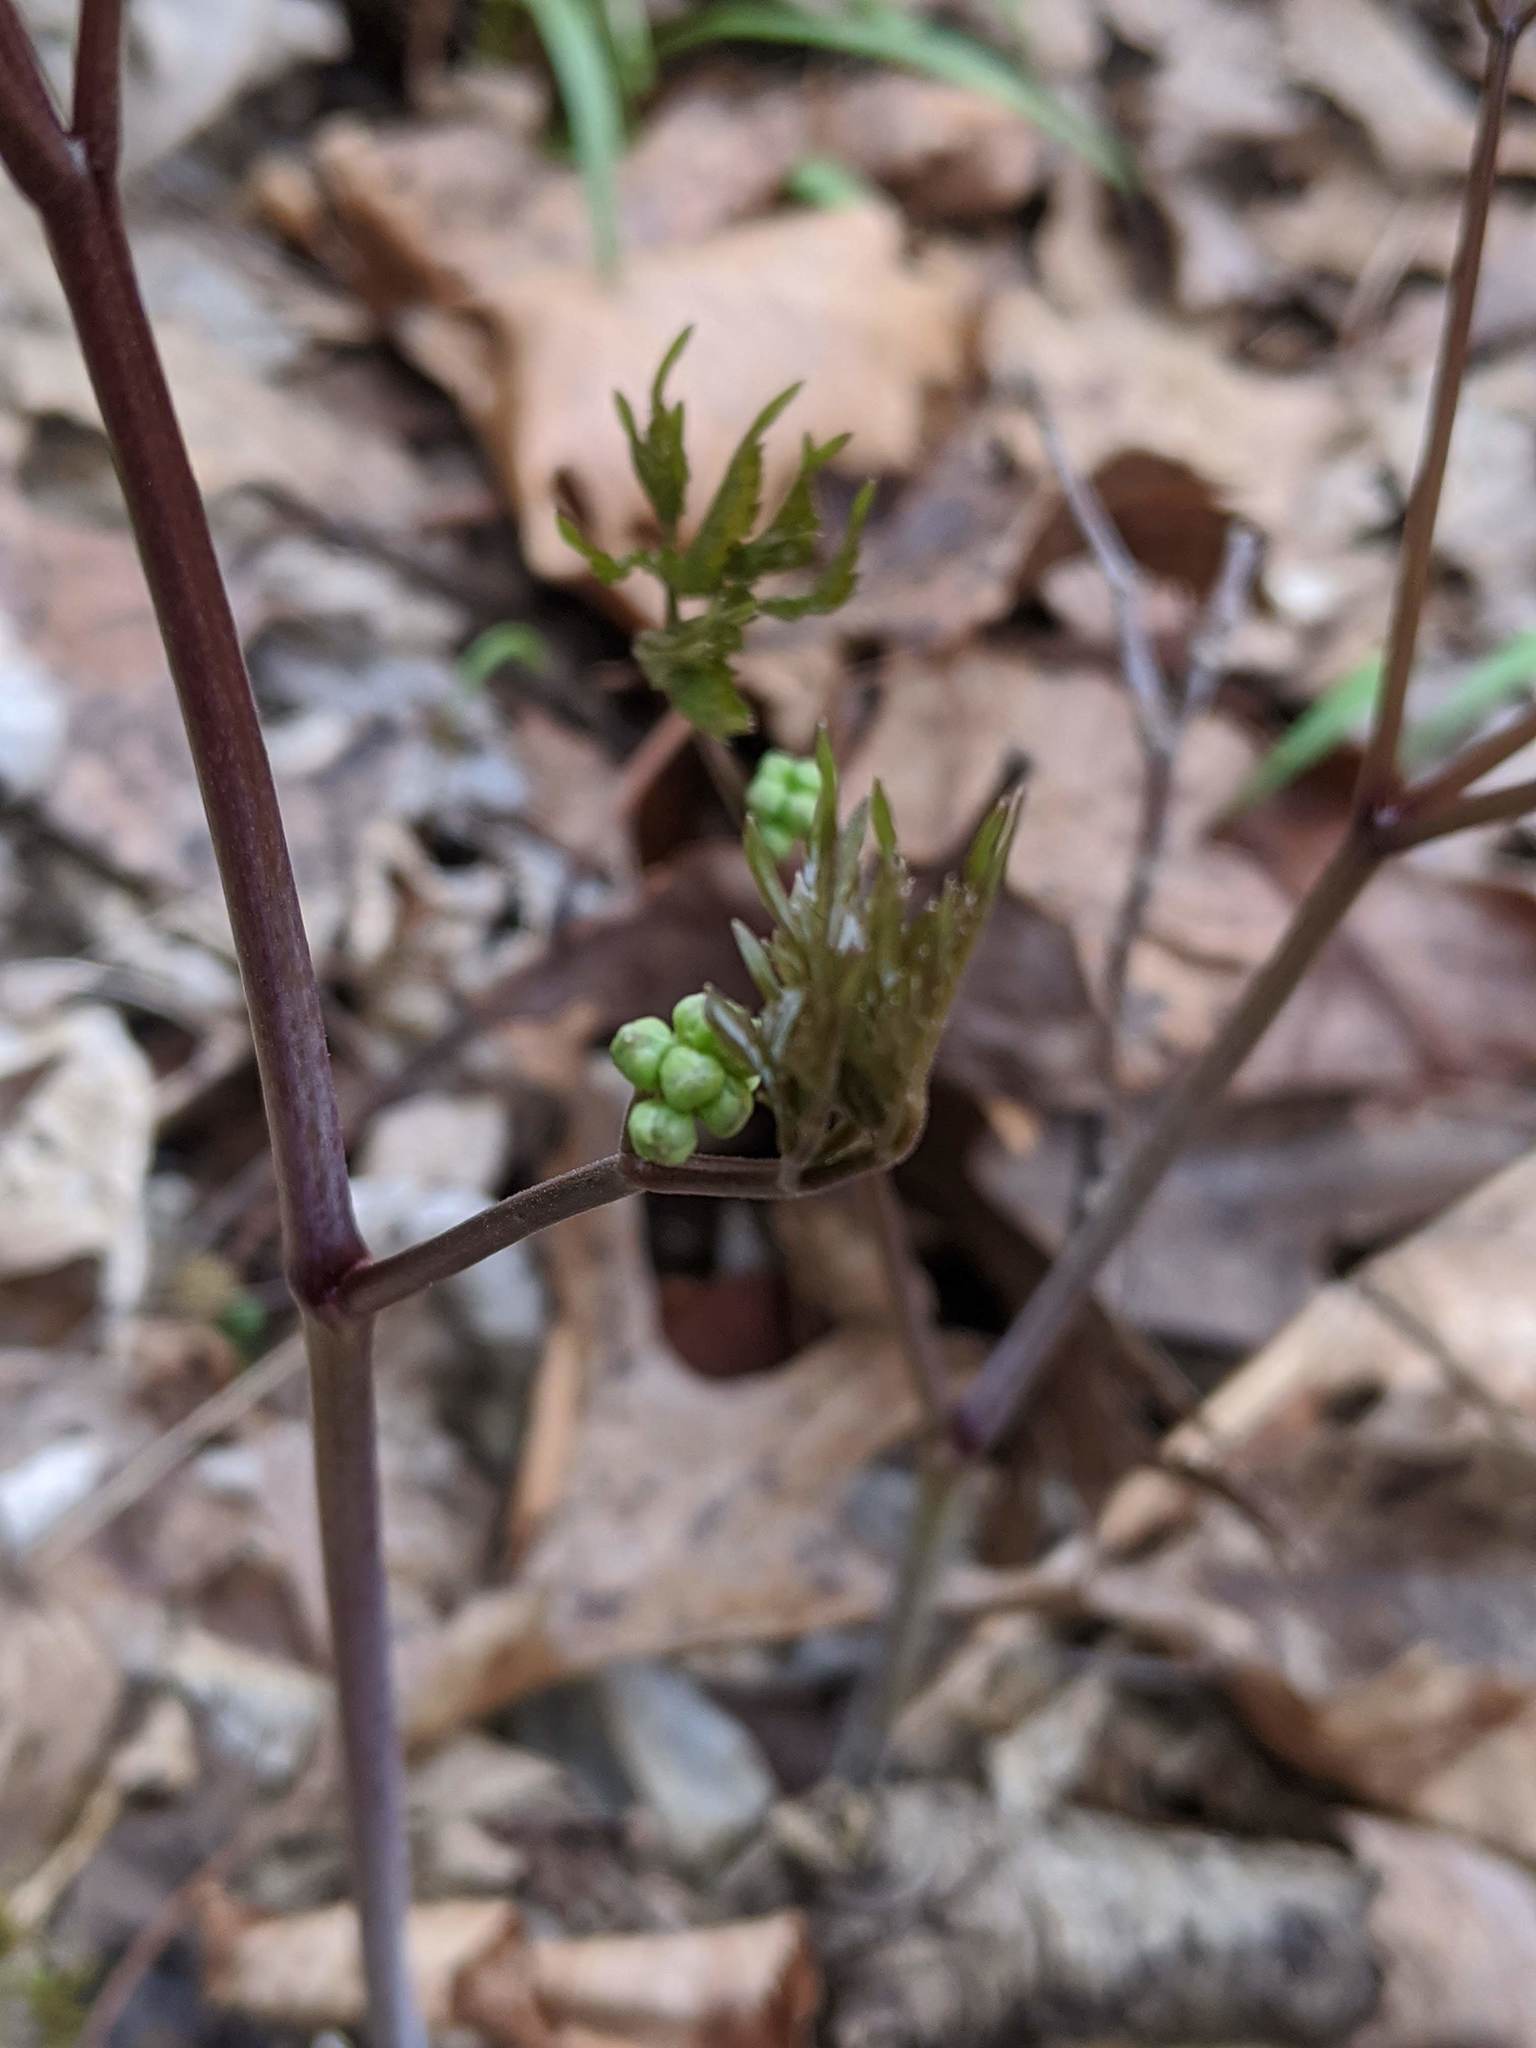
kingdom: Plantae
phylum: Tracheophyta
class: Magnoliopsida
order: Ranunculales
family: Ranunculaceae
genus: Actaea
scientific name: Actaea pachypoda
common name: Doll's-eyes
